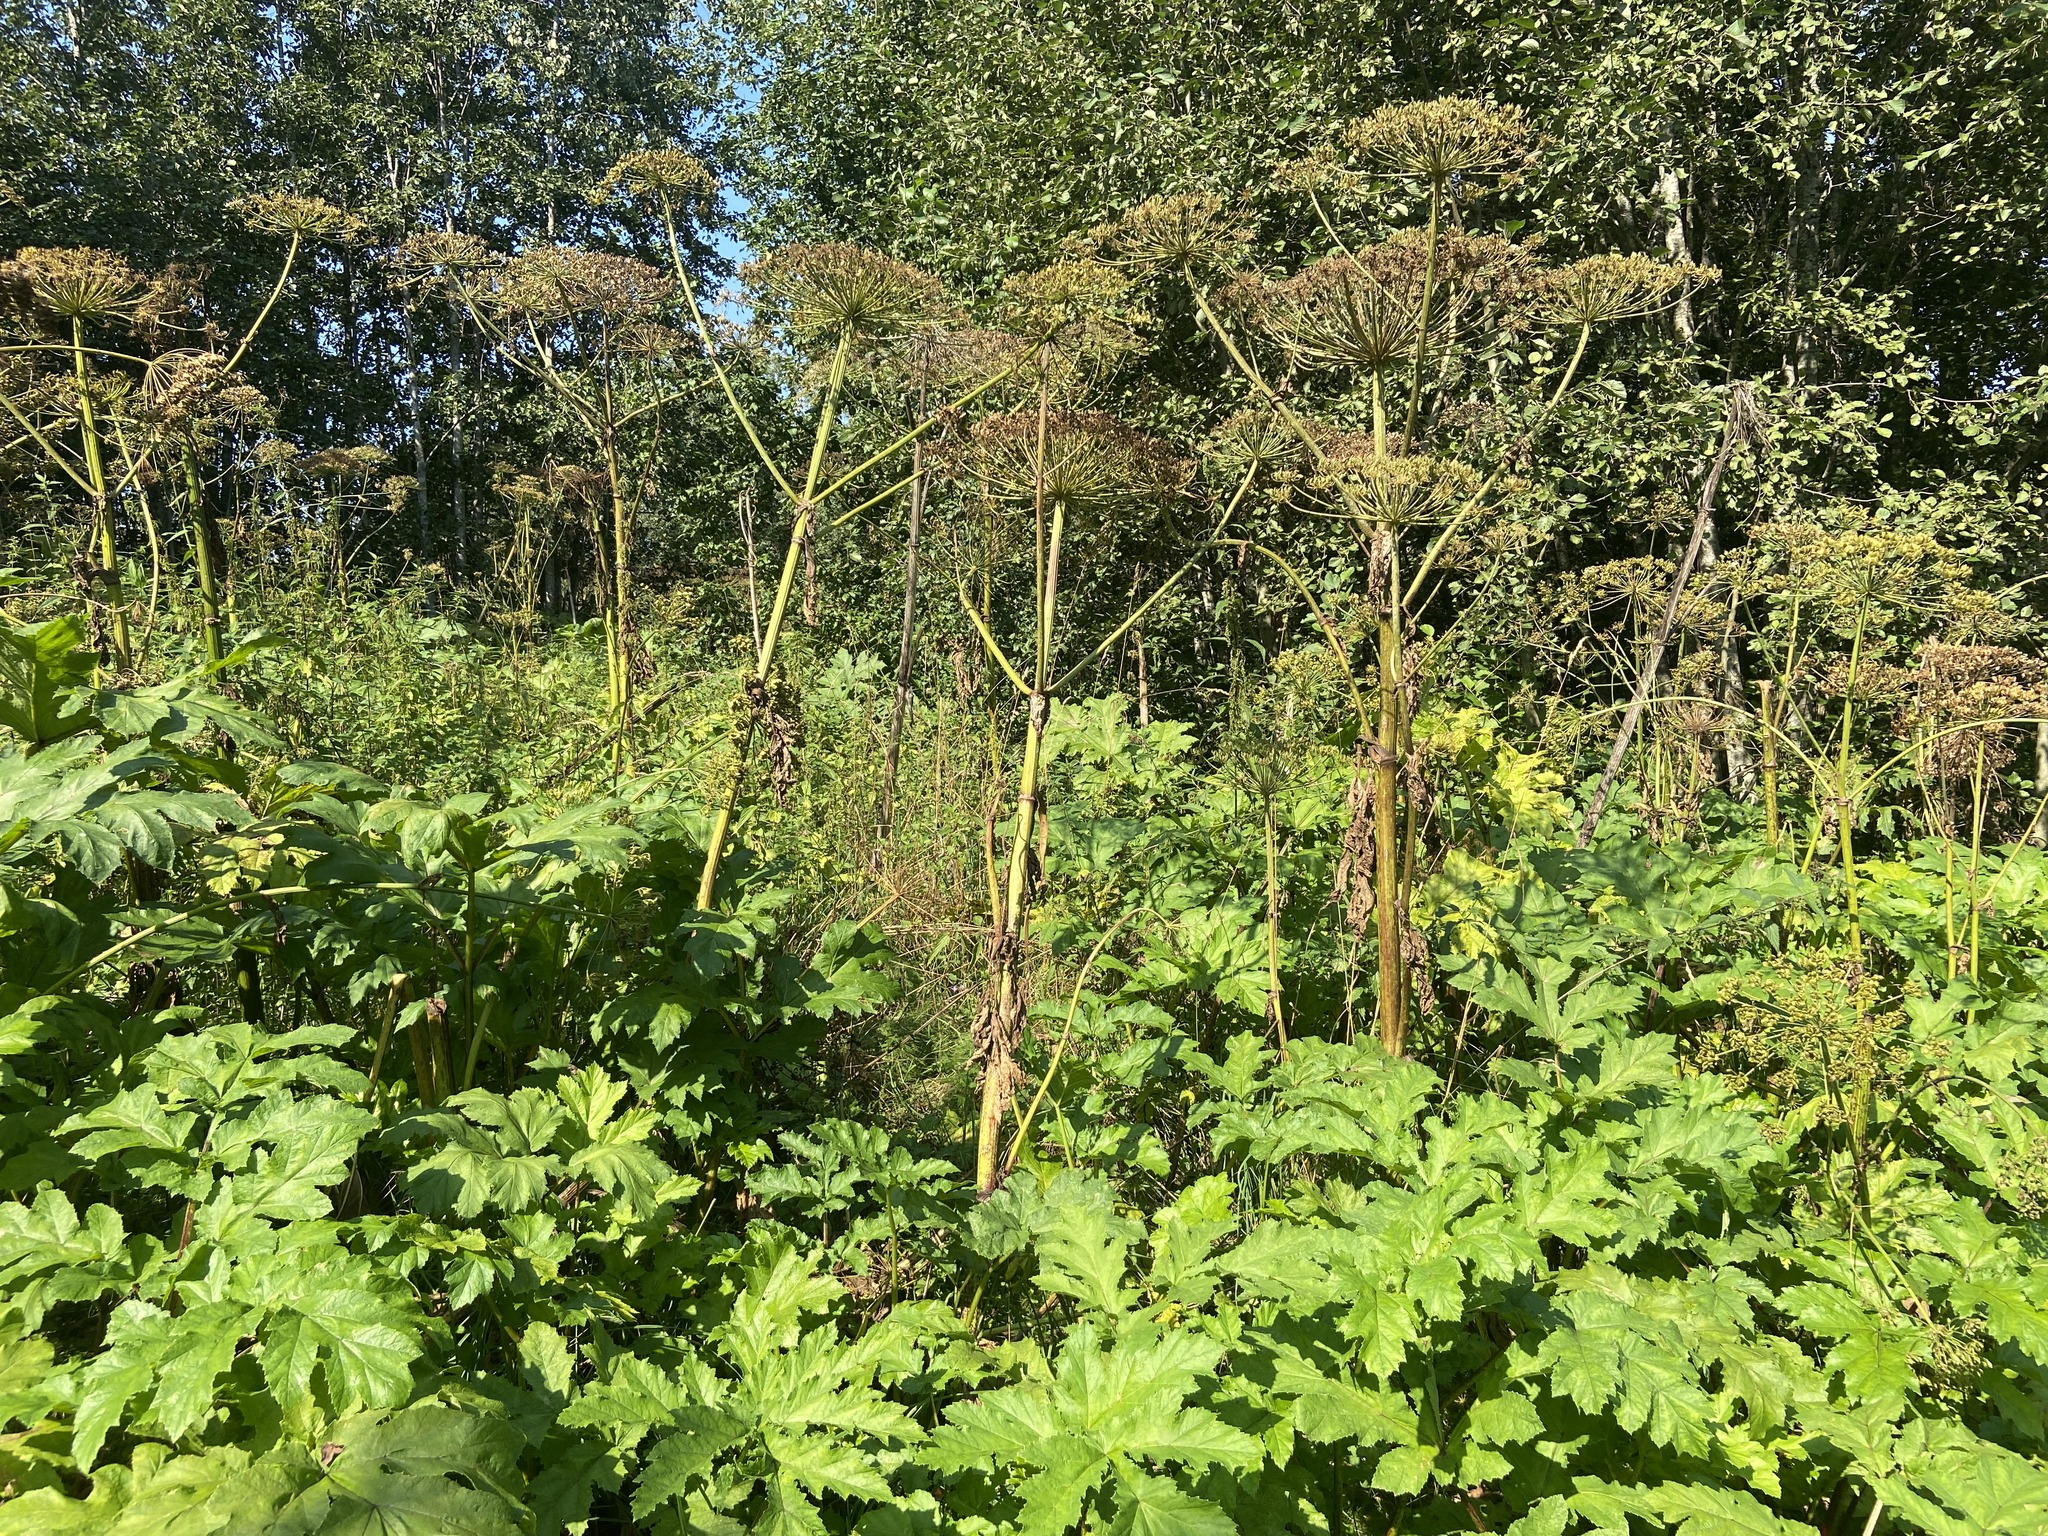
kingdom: Plantae
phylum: Tracheophyta
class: Magnoliopsida
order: Apiales
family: Apiaceae
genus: Heracleum
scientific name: Heracleum sosnowskyi
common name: Sosnowsky's hogweed
